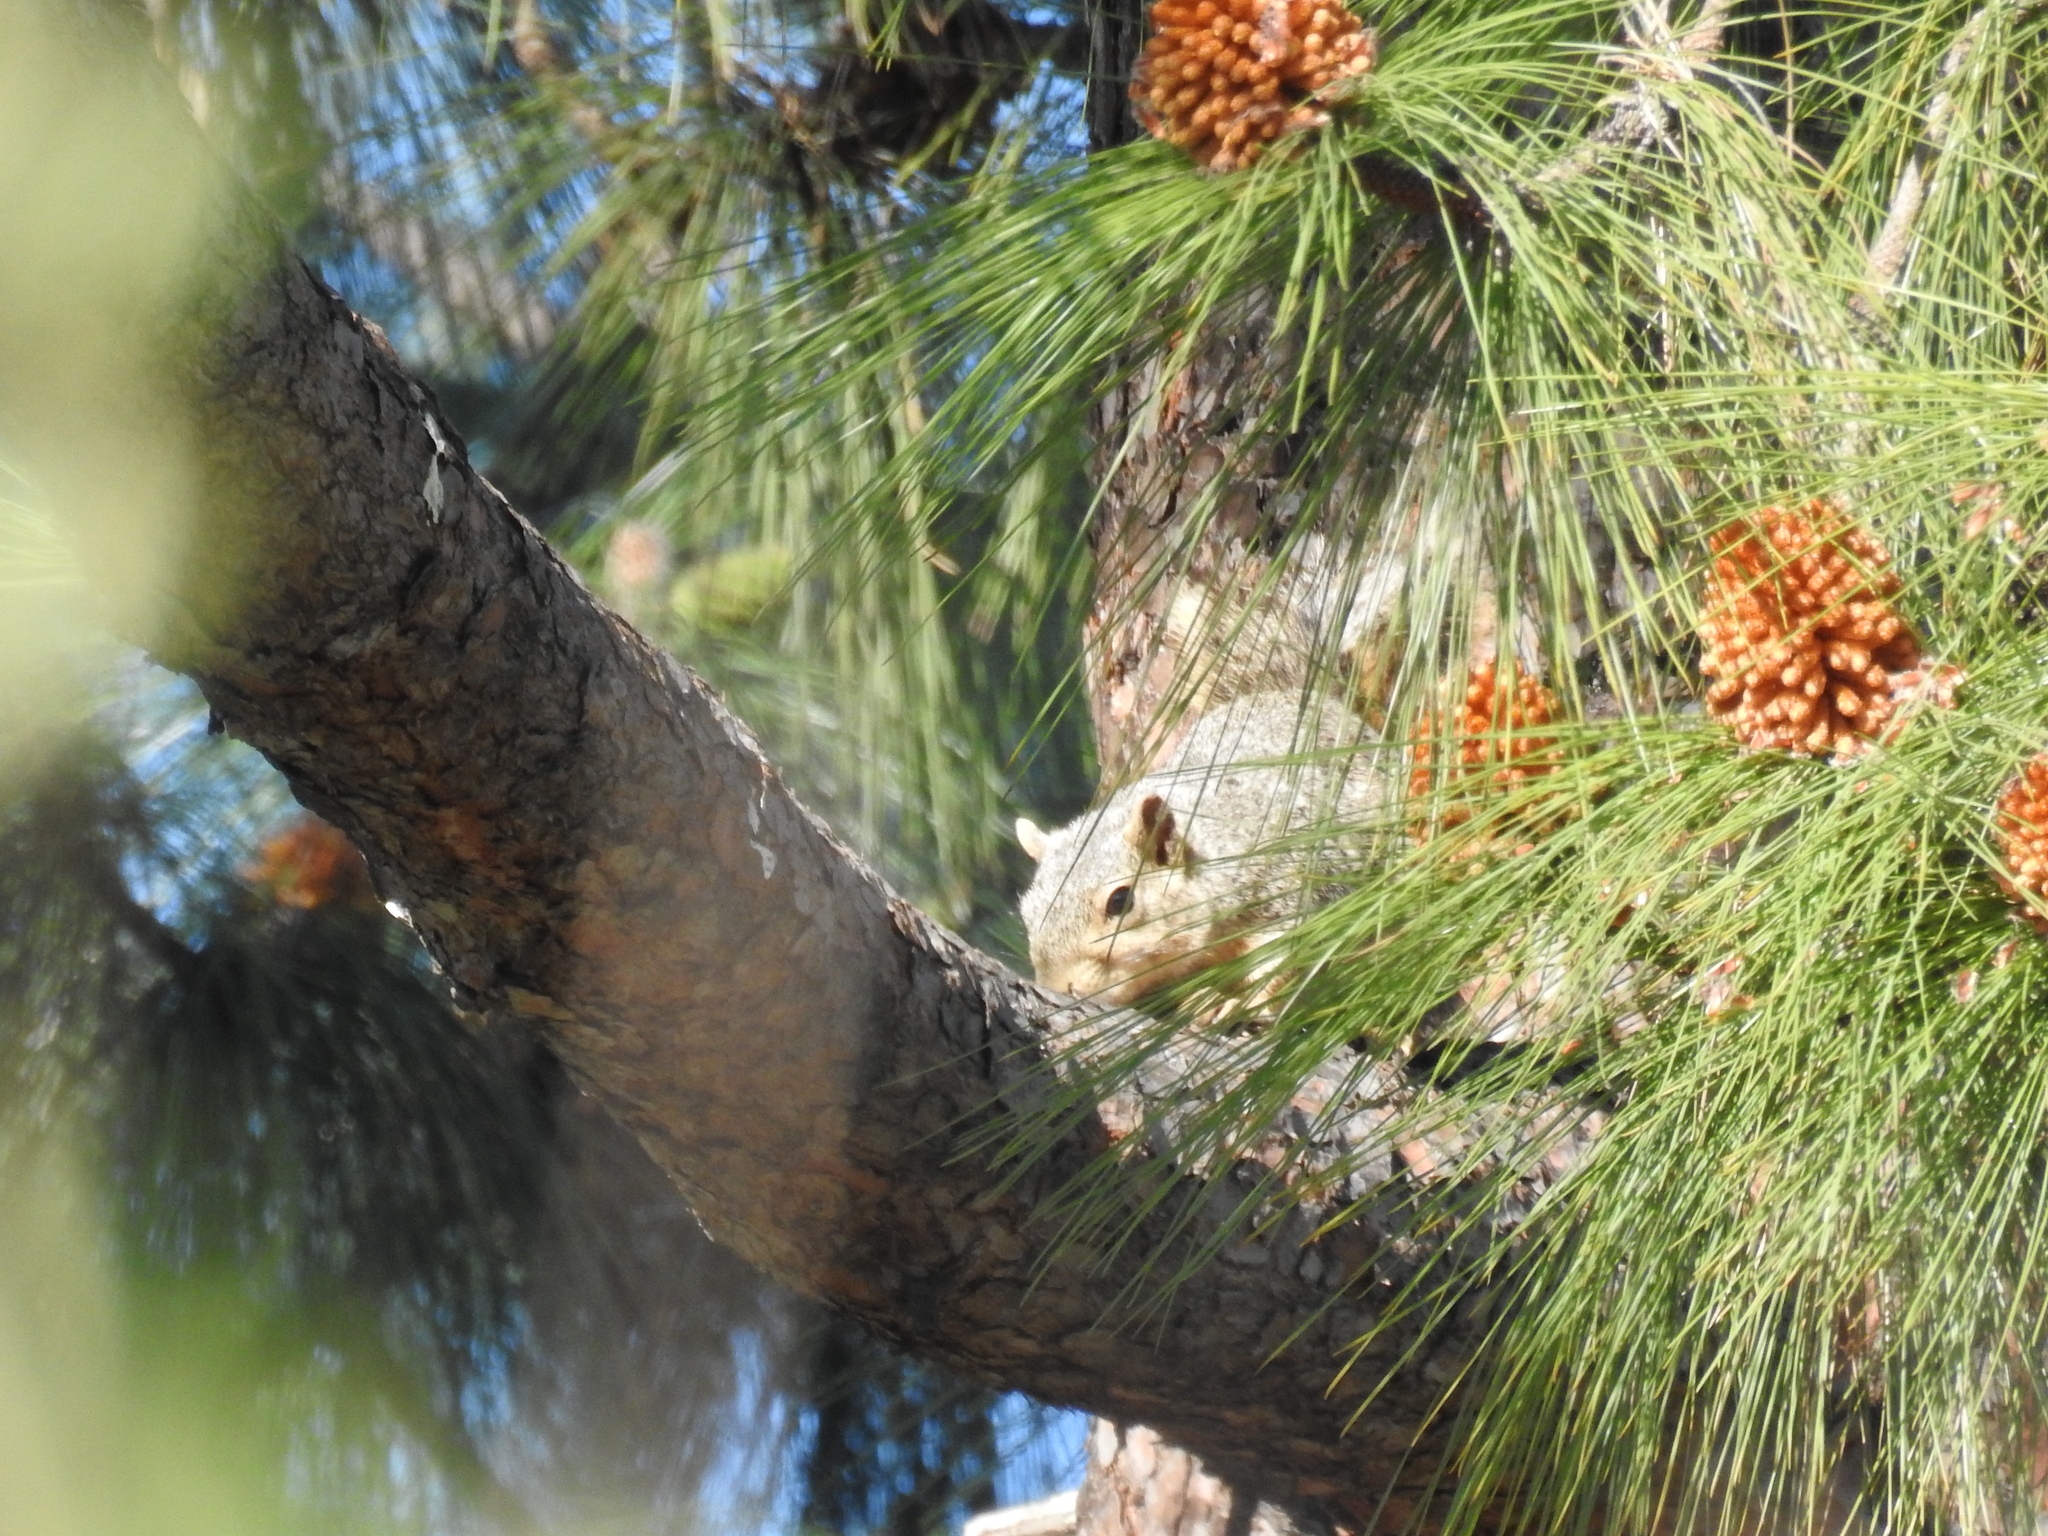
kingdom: Animalia
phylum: Chordata
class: Mammalia
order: Rodentia
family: Sciuridae
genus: Sciurus
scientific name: Sciurus niger
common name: Fox squirrel
